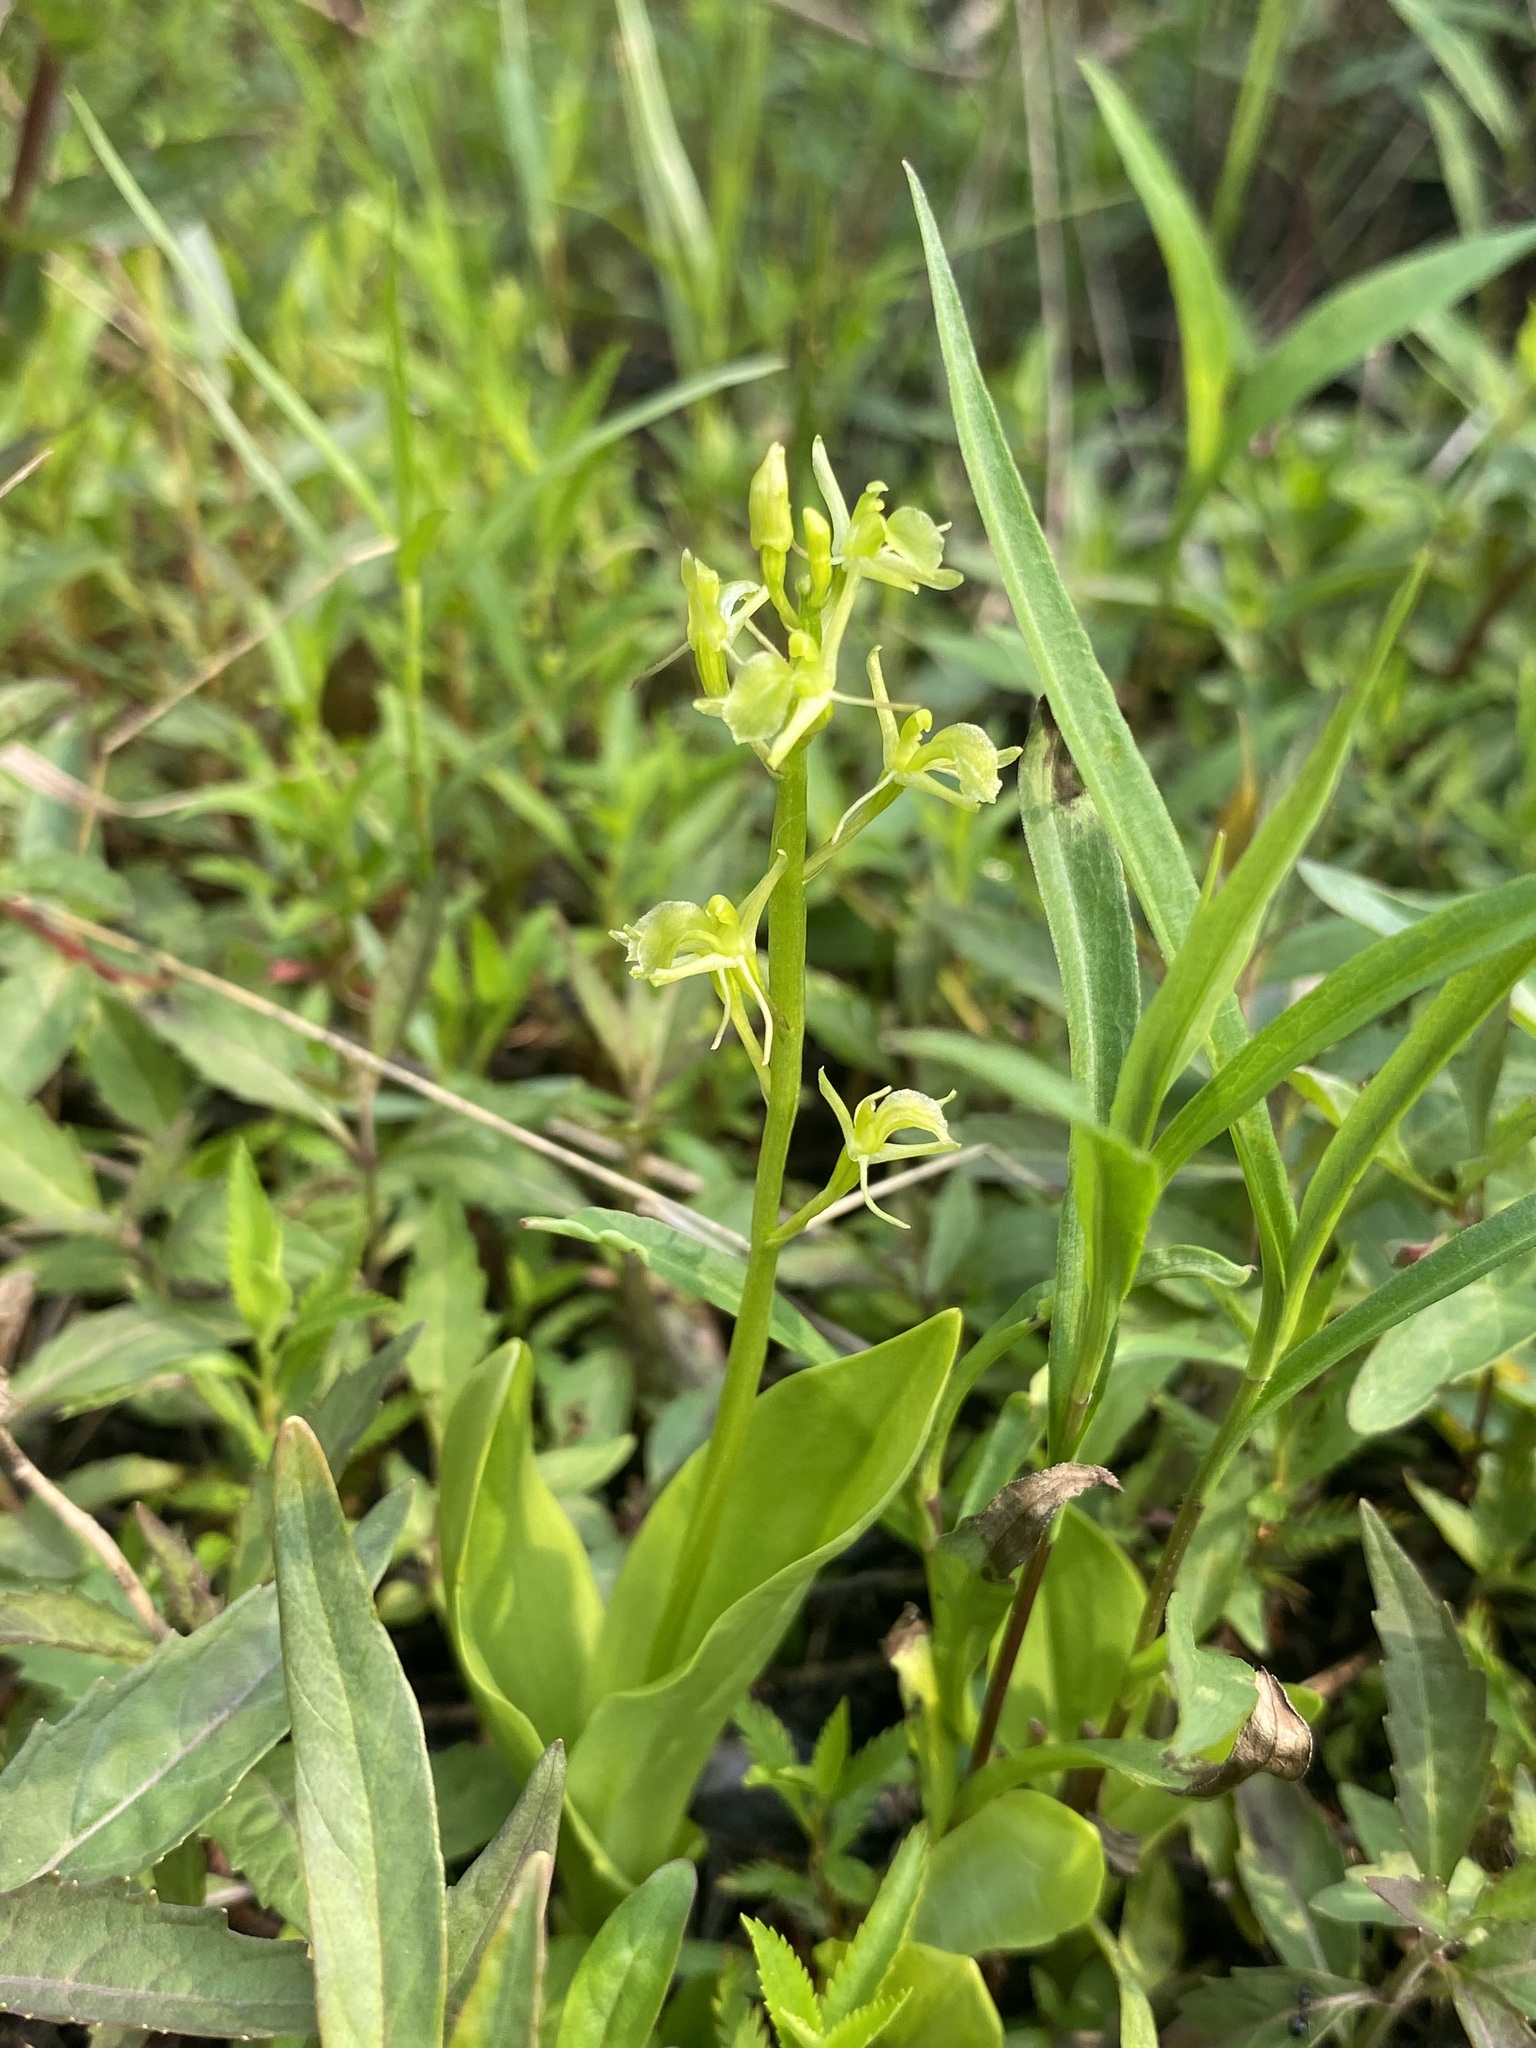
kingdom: Animalia
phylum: Arthropoda
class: Insecta
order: Coleoptera
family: Curculionidae
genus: Liparis
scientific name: Liparis loeselii
